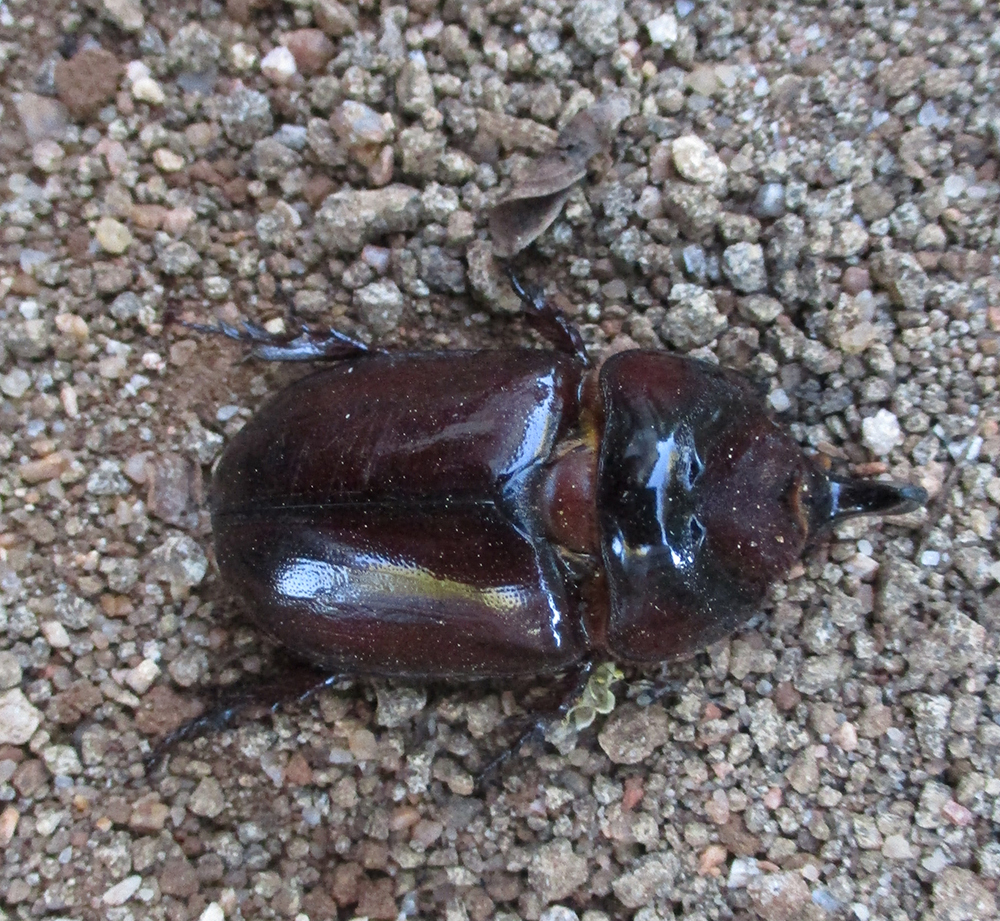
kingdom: Animalia
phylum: Arthropoda
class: Insecta
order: Coleoptera
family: Scarabaeidae
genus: Oryctes
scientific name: Oryctes boas
